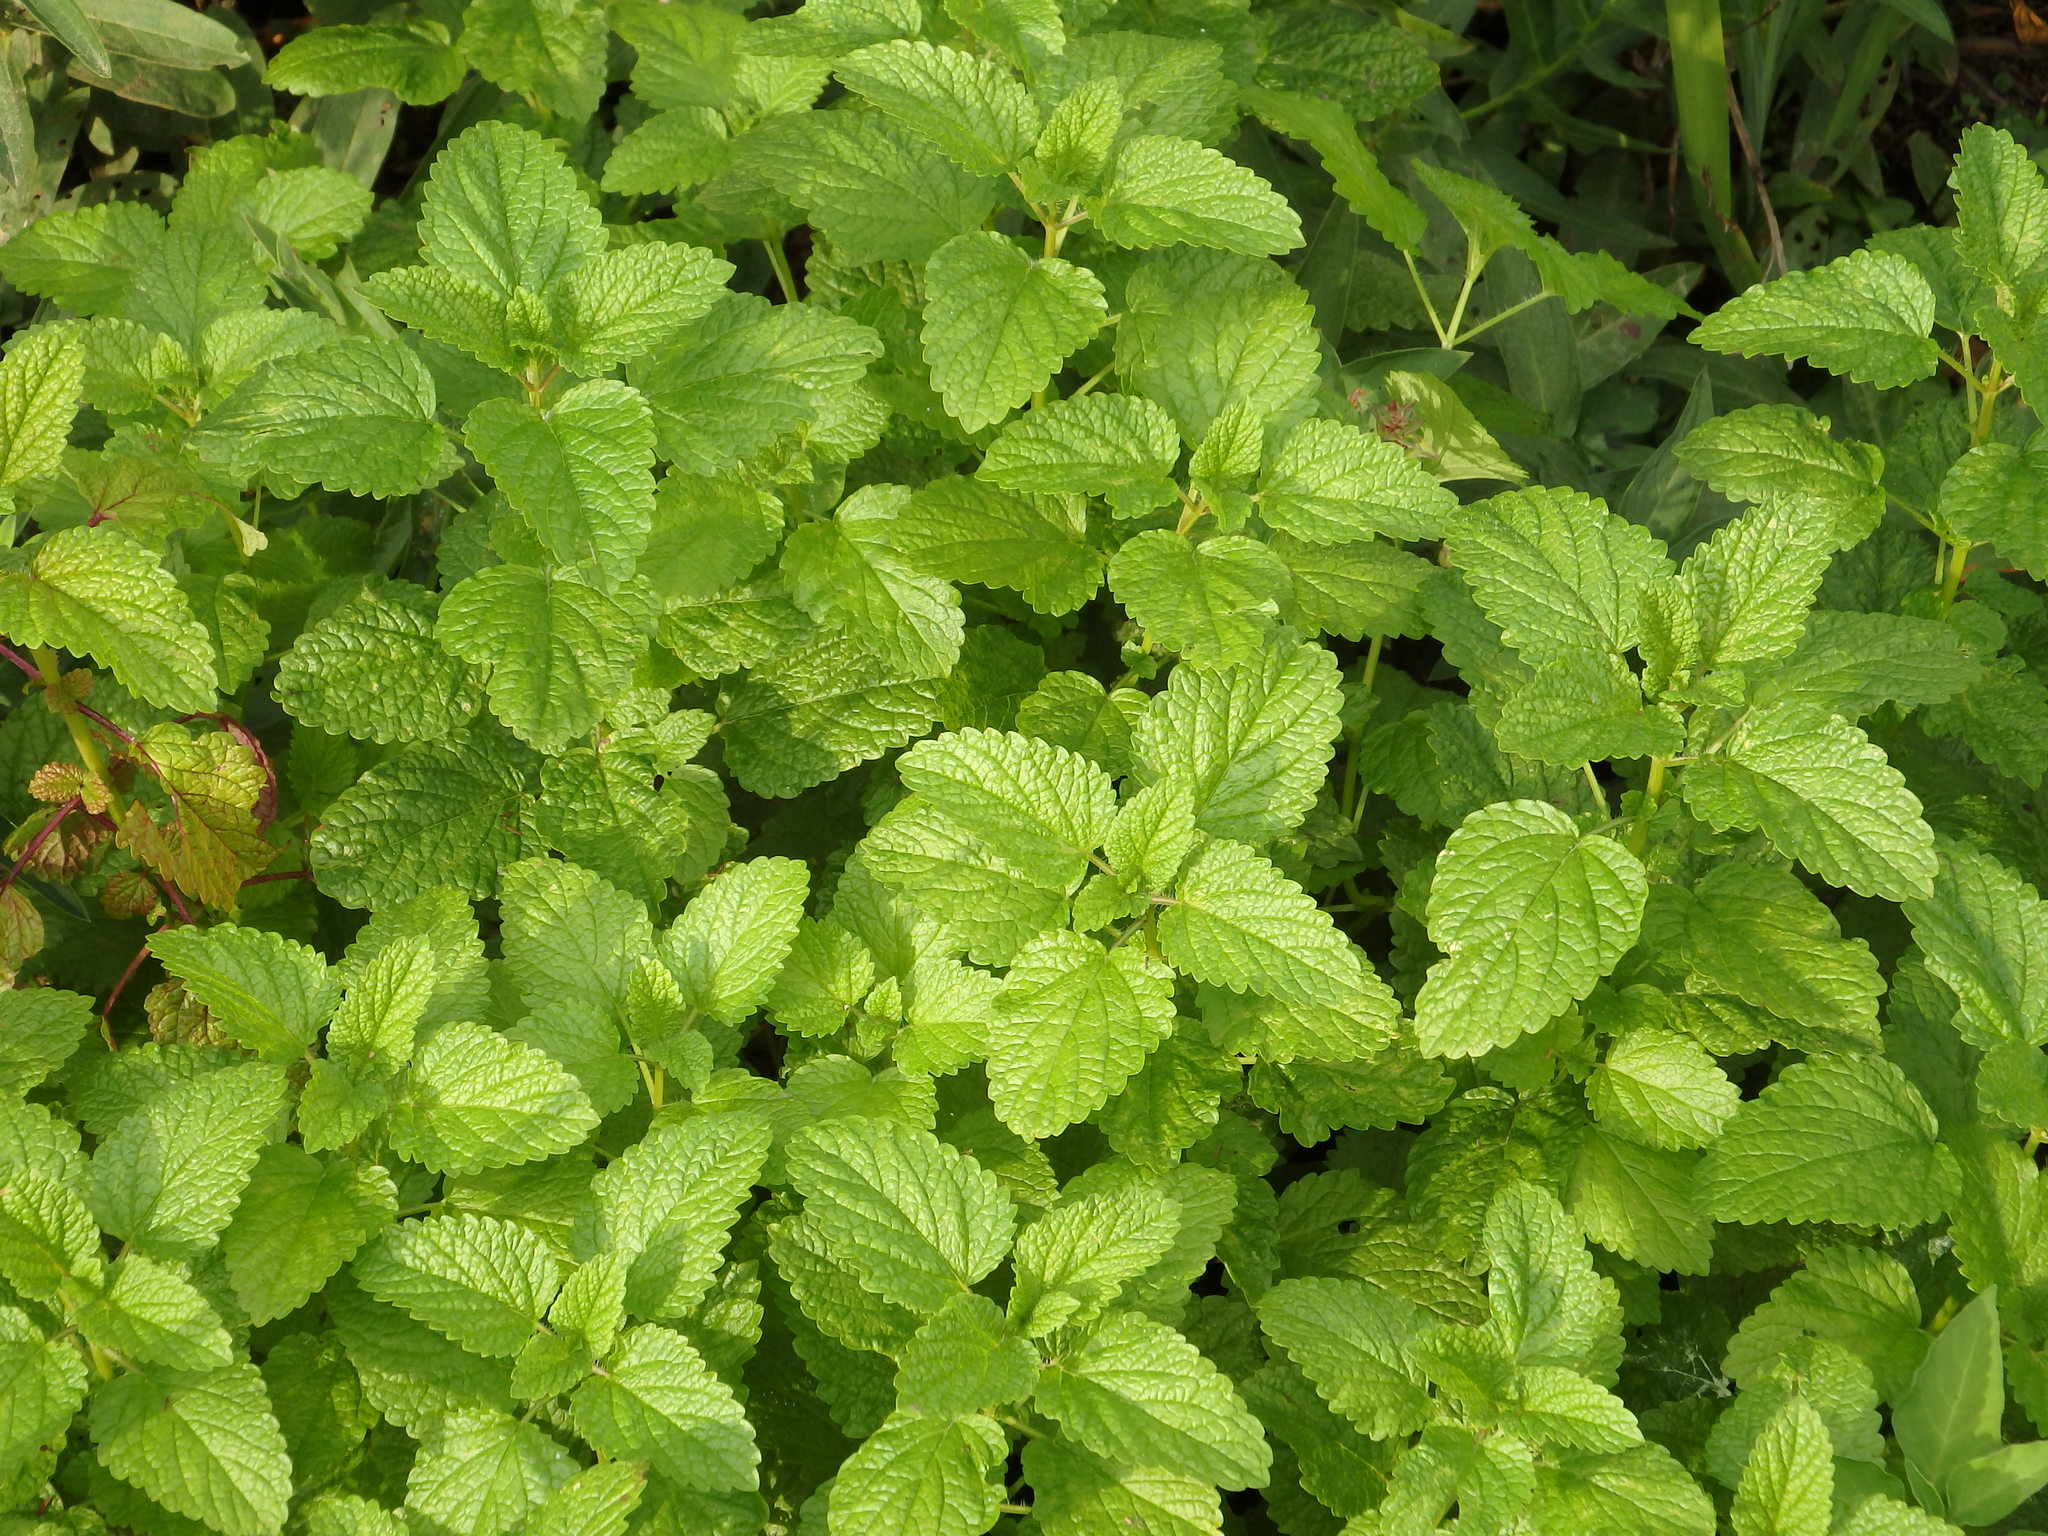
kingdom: Plantae
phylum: Tracheophyta
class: Magnoliopsida
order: Lamiales
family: Lamiaceae
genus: Melissa
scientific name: Melissa officinalis
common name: Balm
